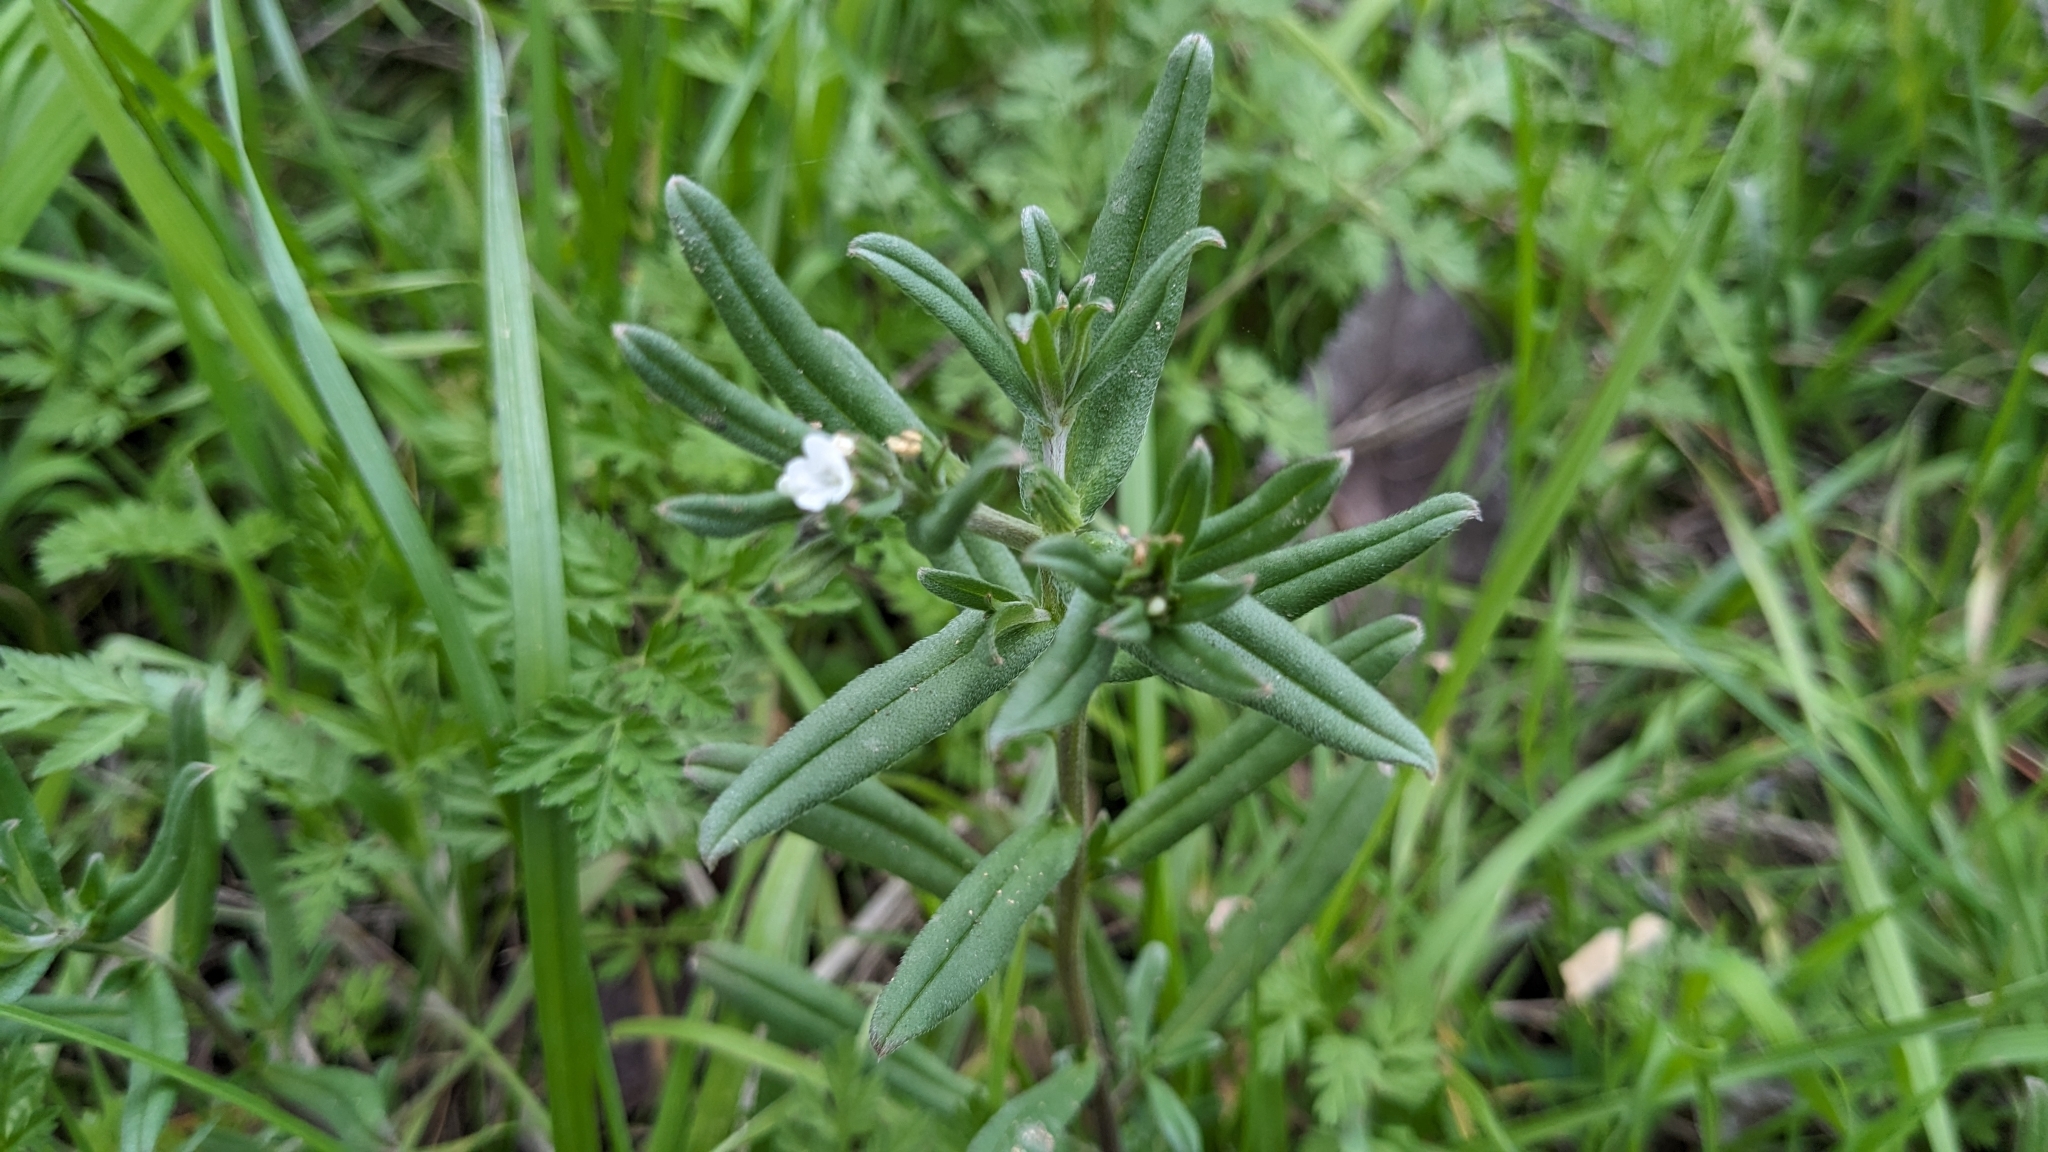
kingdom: Plantae
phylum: Tracheophyta
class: Magnoliopsida
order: Boraginales
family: Boraginaceae
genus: Buglossoides
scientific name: Buglossoides arvensis
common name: Corn gromwell
